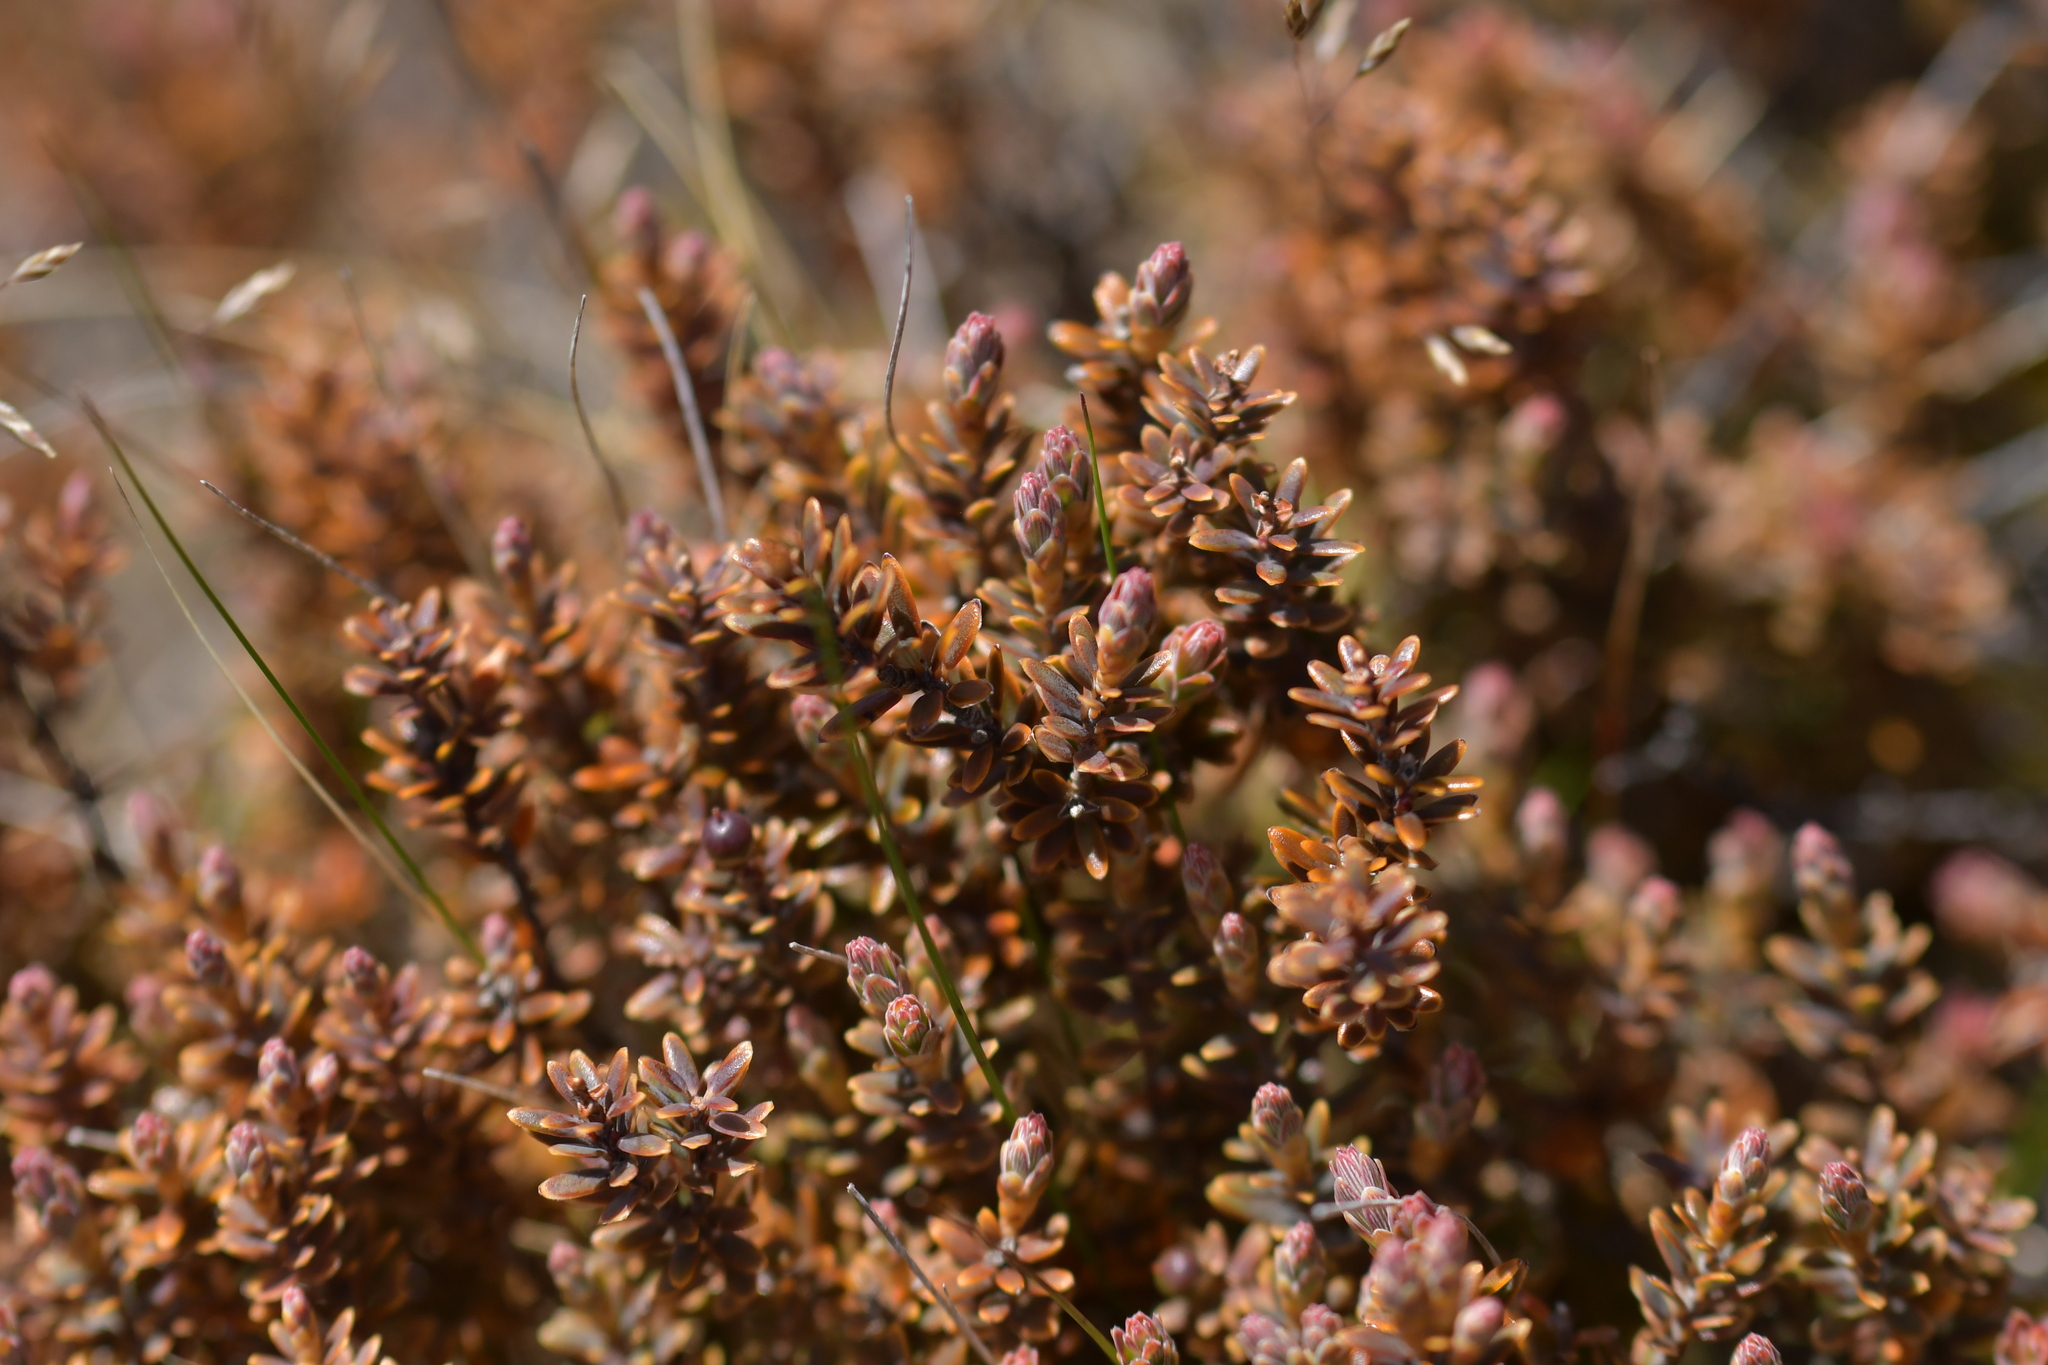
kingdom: Plantae
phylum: Tracheophyta
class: Magnoliopsida
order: Ericales
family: Ericaceae
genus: Acrothamnus
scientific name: Acrothamnus colensoi
